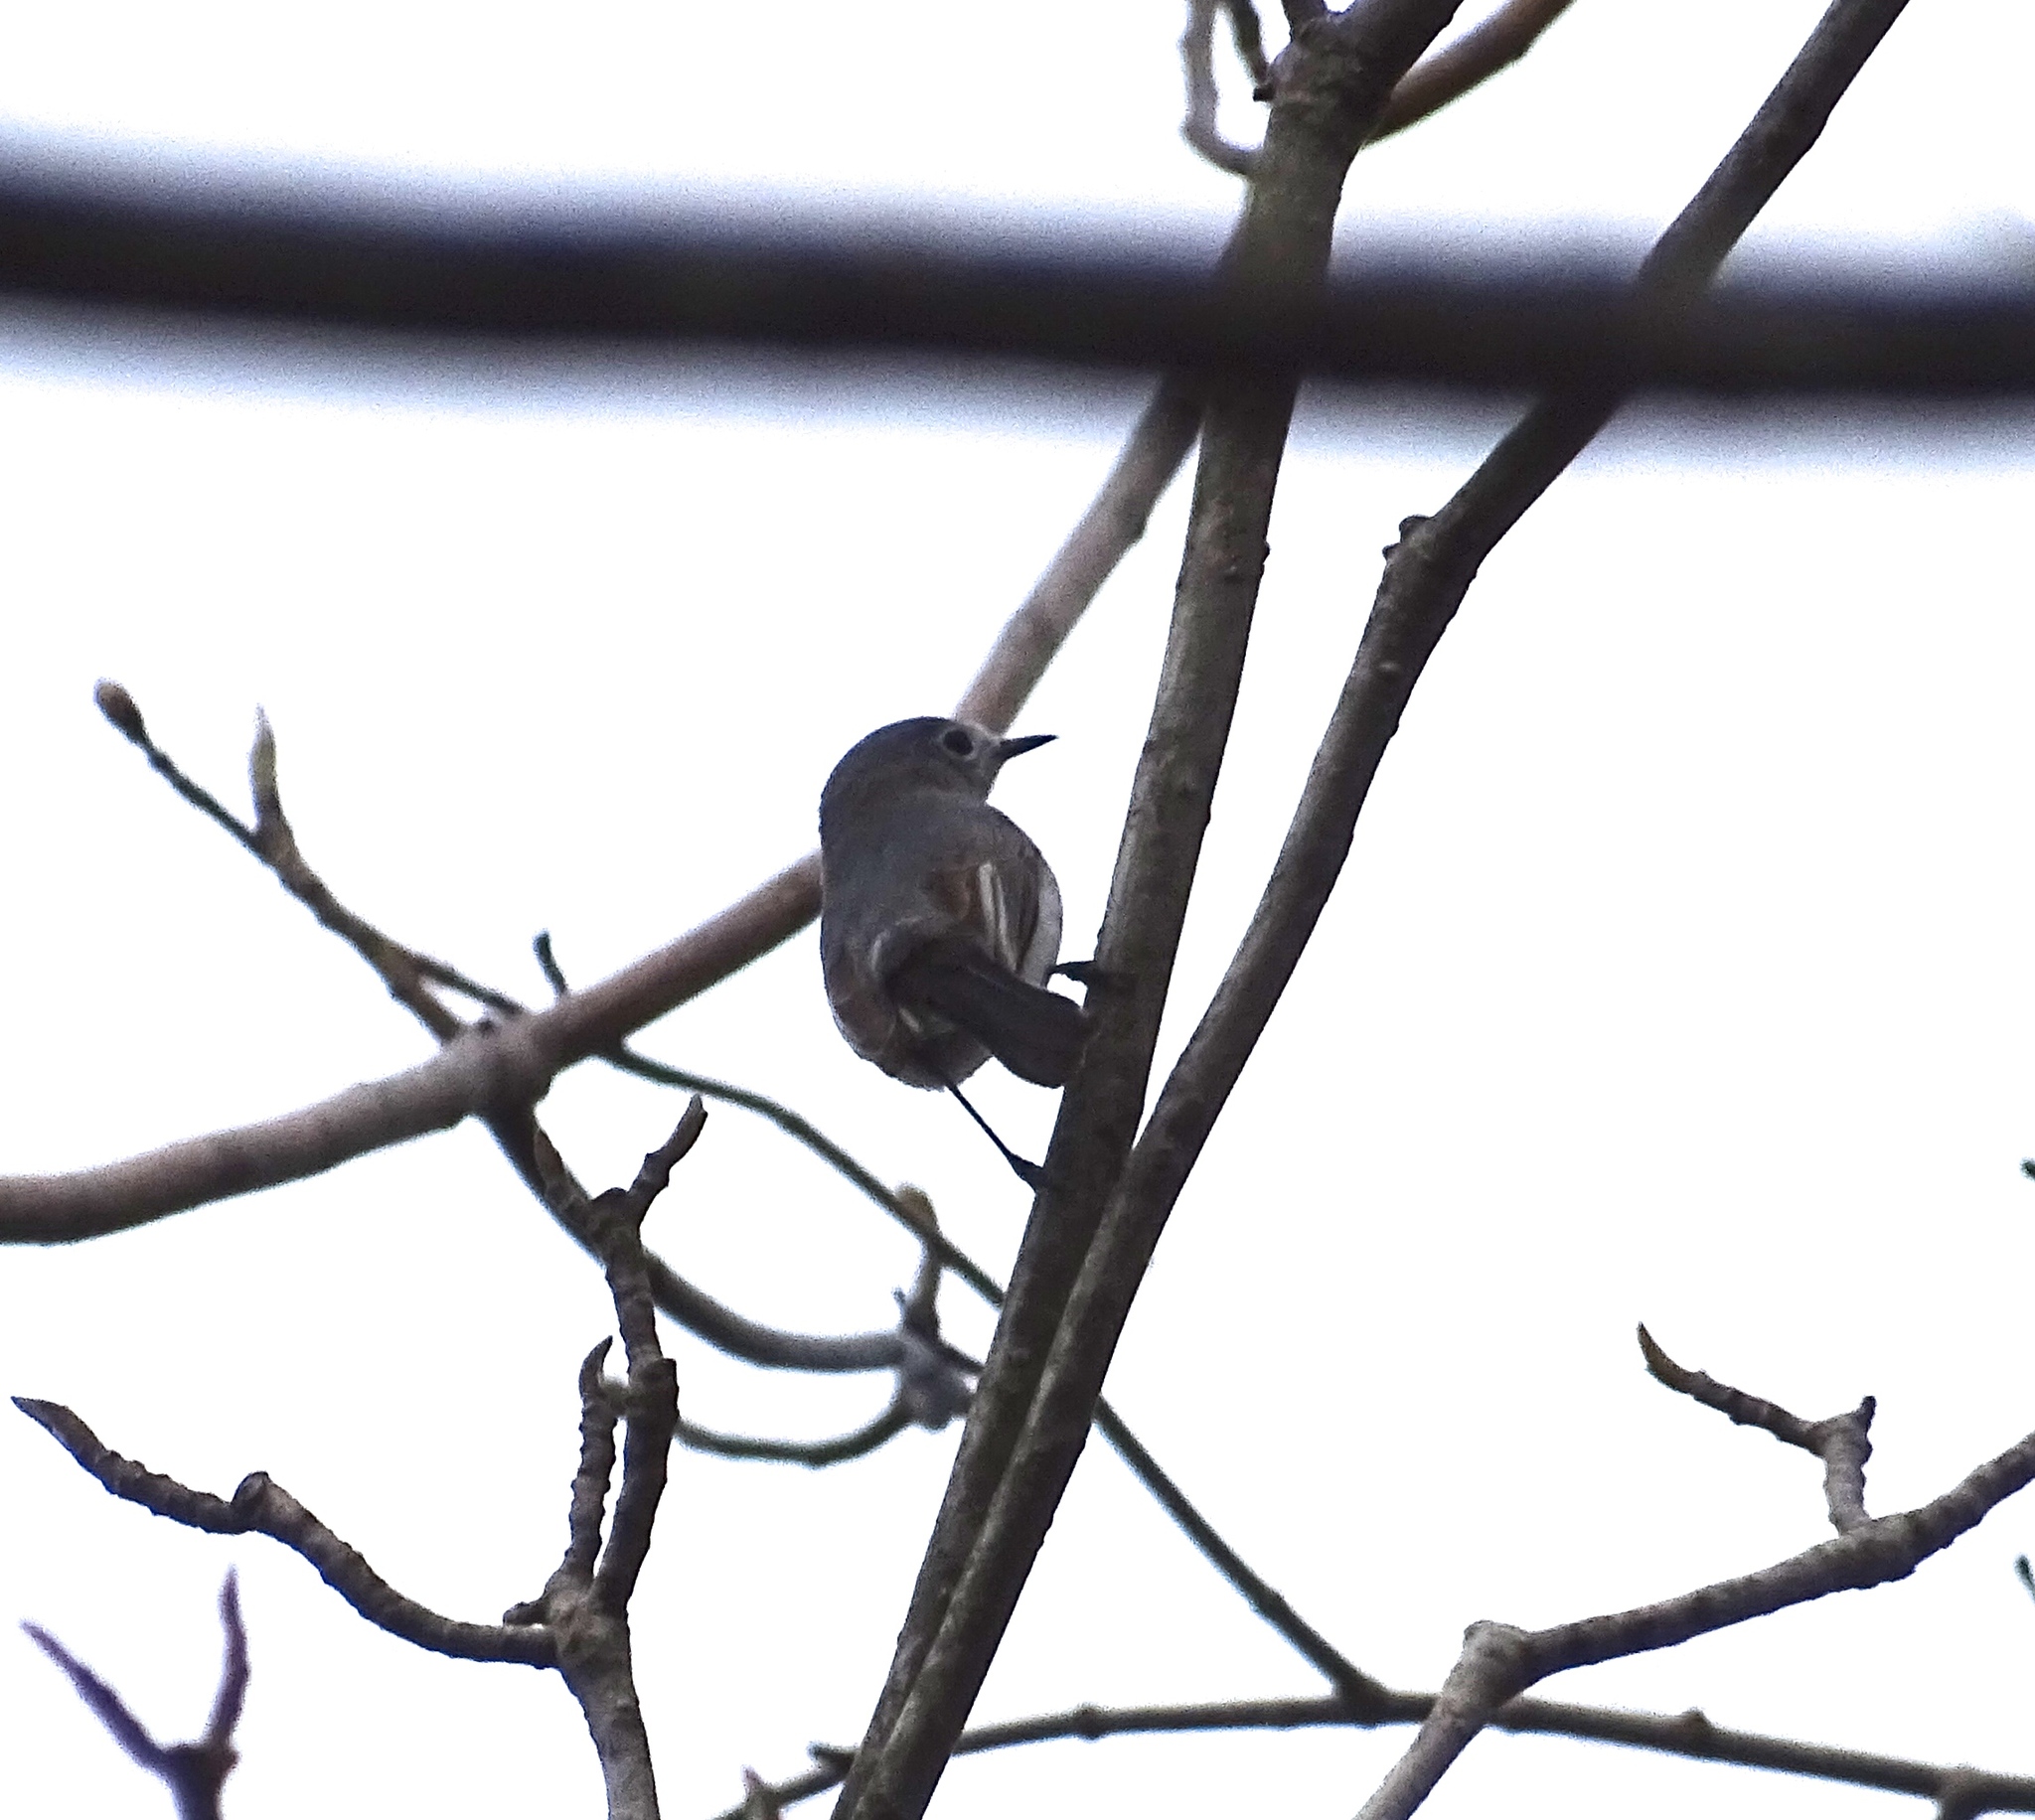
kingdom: Animalia
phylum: Chordata
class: Aves
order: Passeriformes
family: Polioptilidae
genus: Polioptila
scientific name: Polioptila caerulea
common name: Blue-gray gnatcatcher
